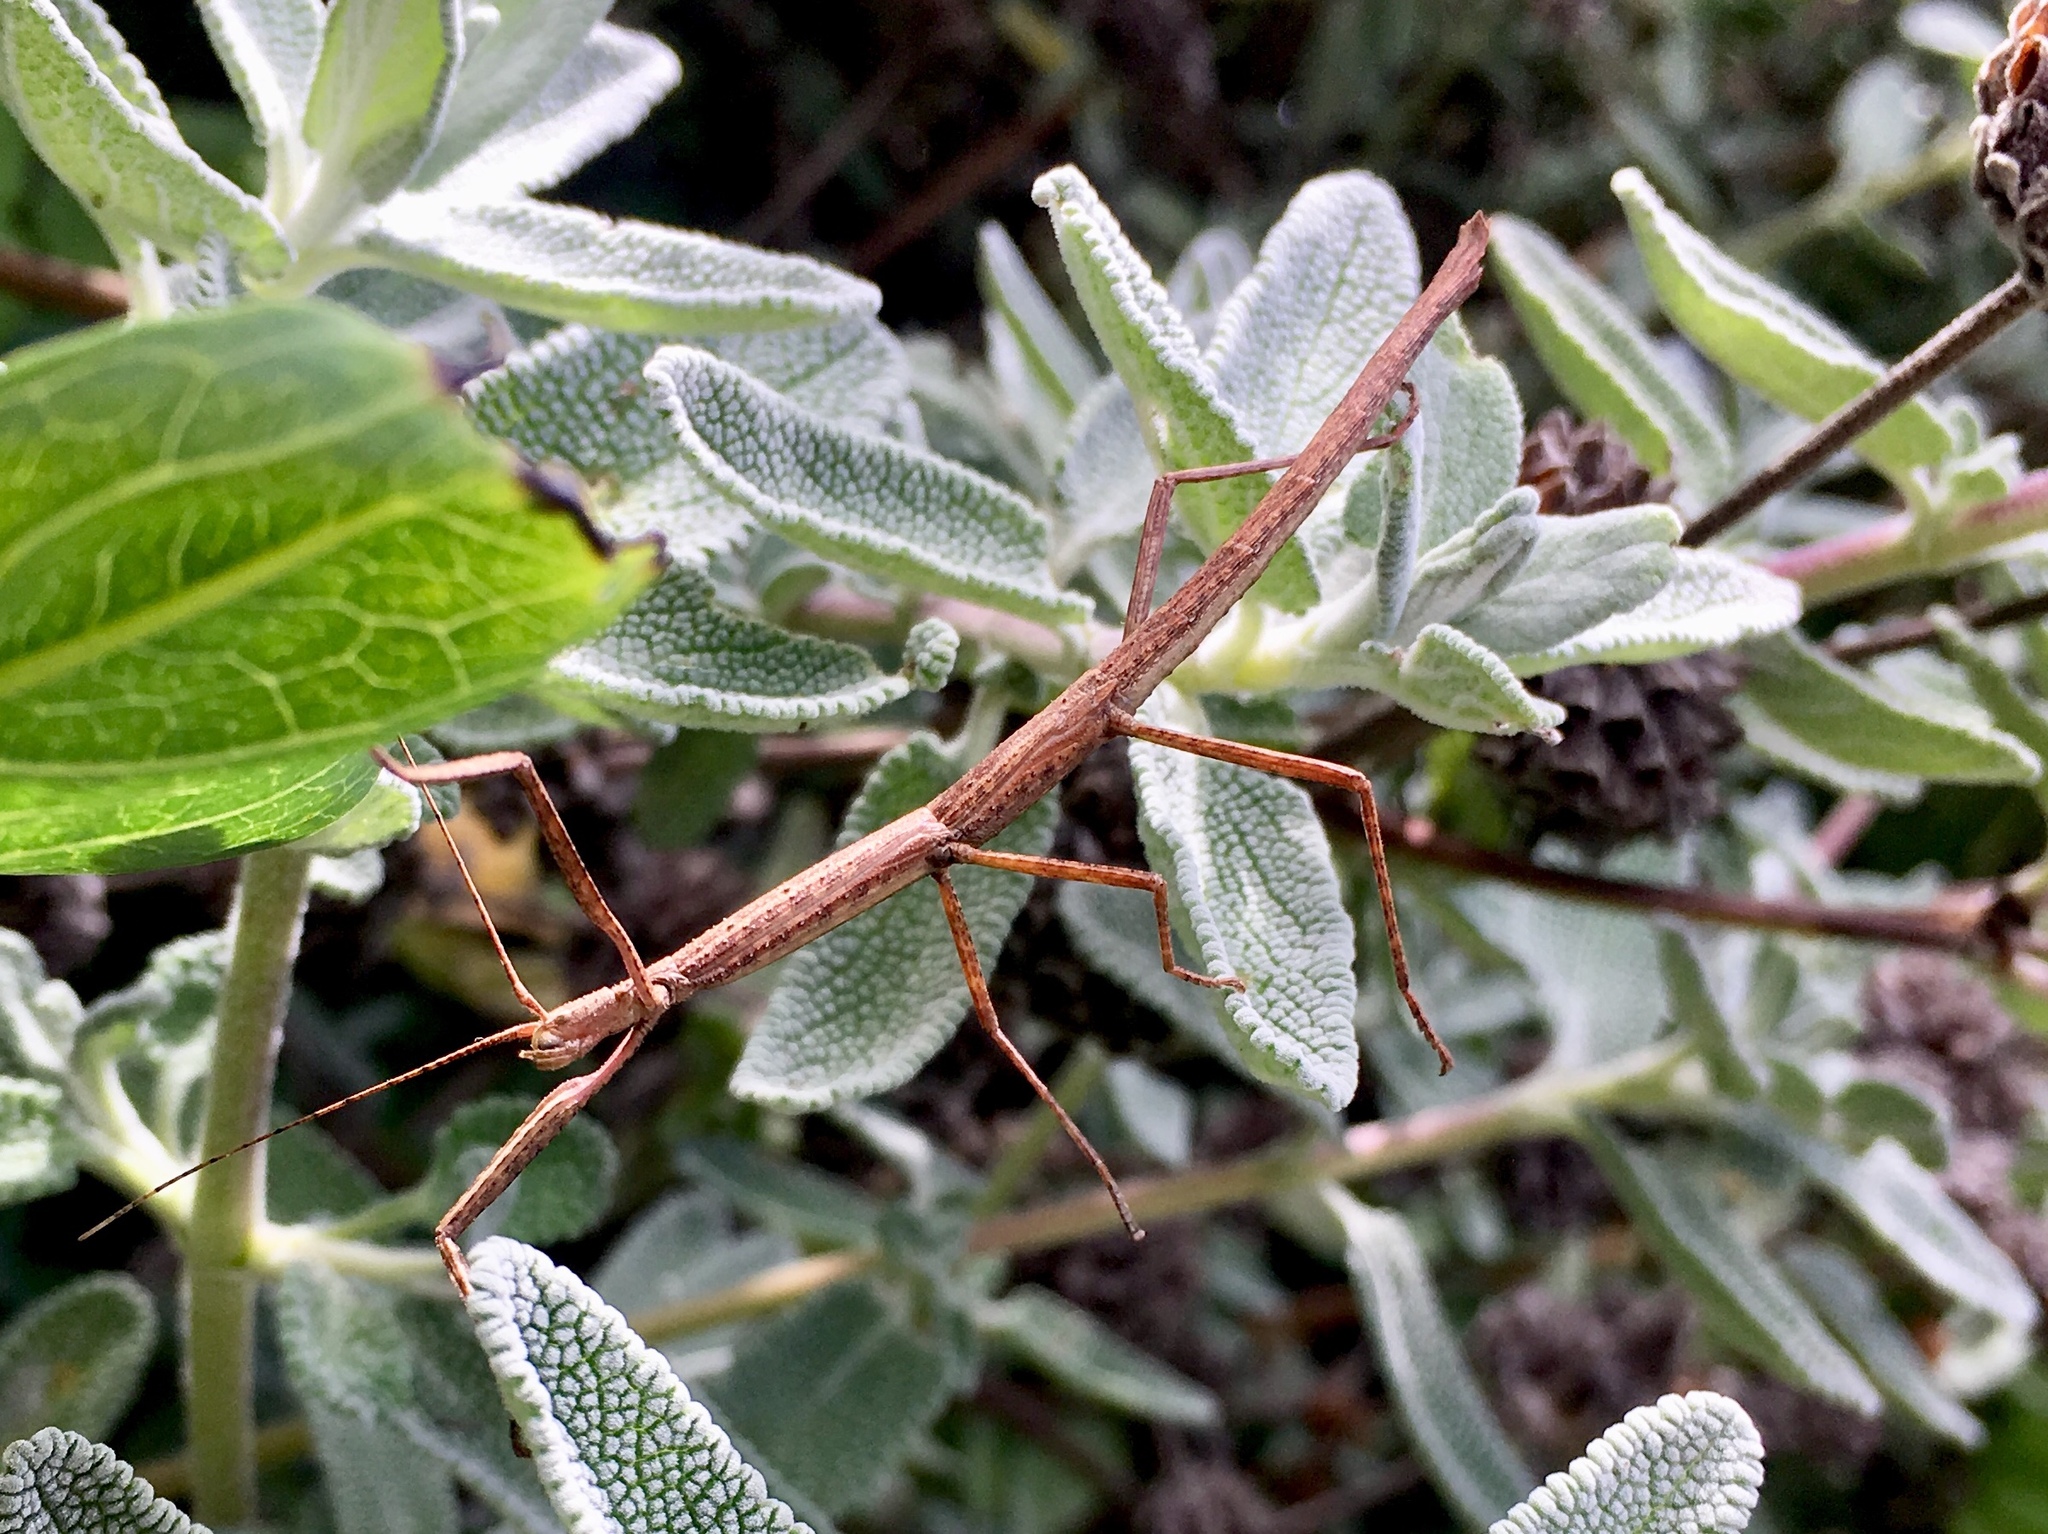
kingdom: Animalia
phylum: Arthropoda
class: Insecta
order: Phasmida
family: Lonchodidae
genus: Carausius
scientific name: Carausius morosus
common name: Indian stick insect
